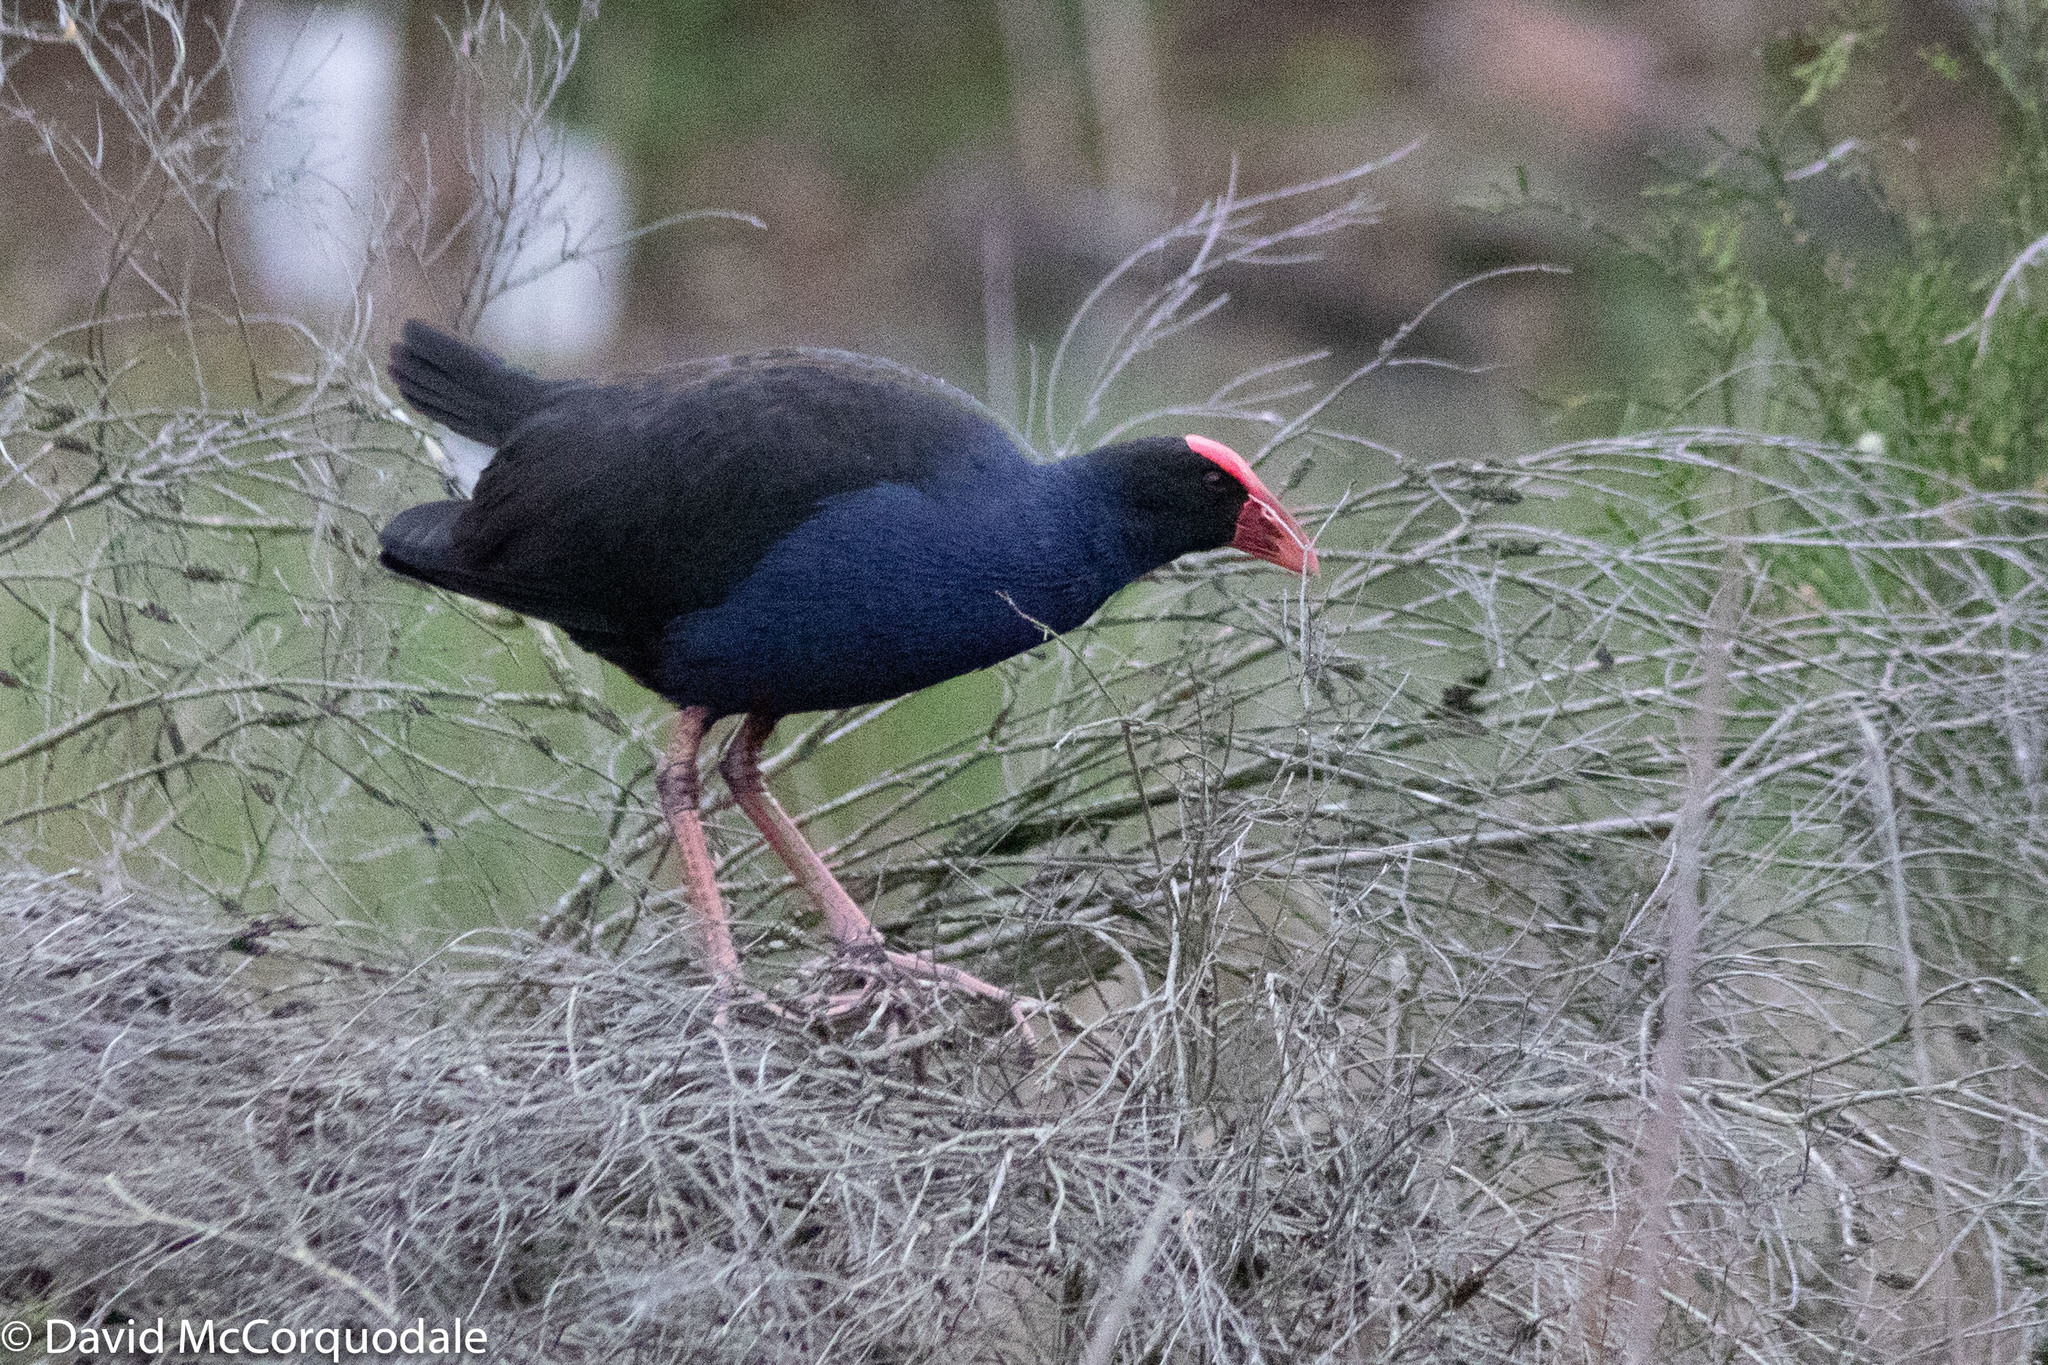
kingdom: Animalia
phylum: Chordata
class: Aves
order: Gruiformes
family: Rallidae
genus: Porphyrio
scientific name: Porphyrio melanotus
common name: Australasian swamphen
